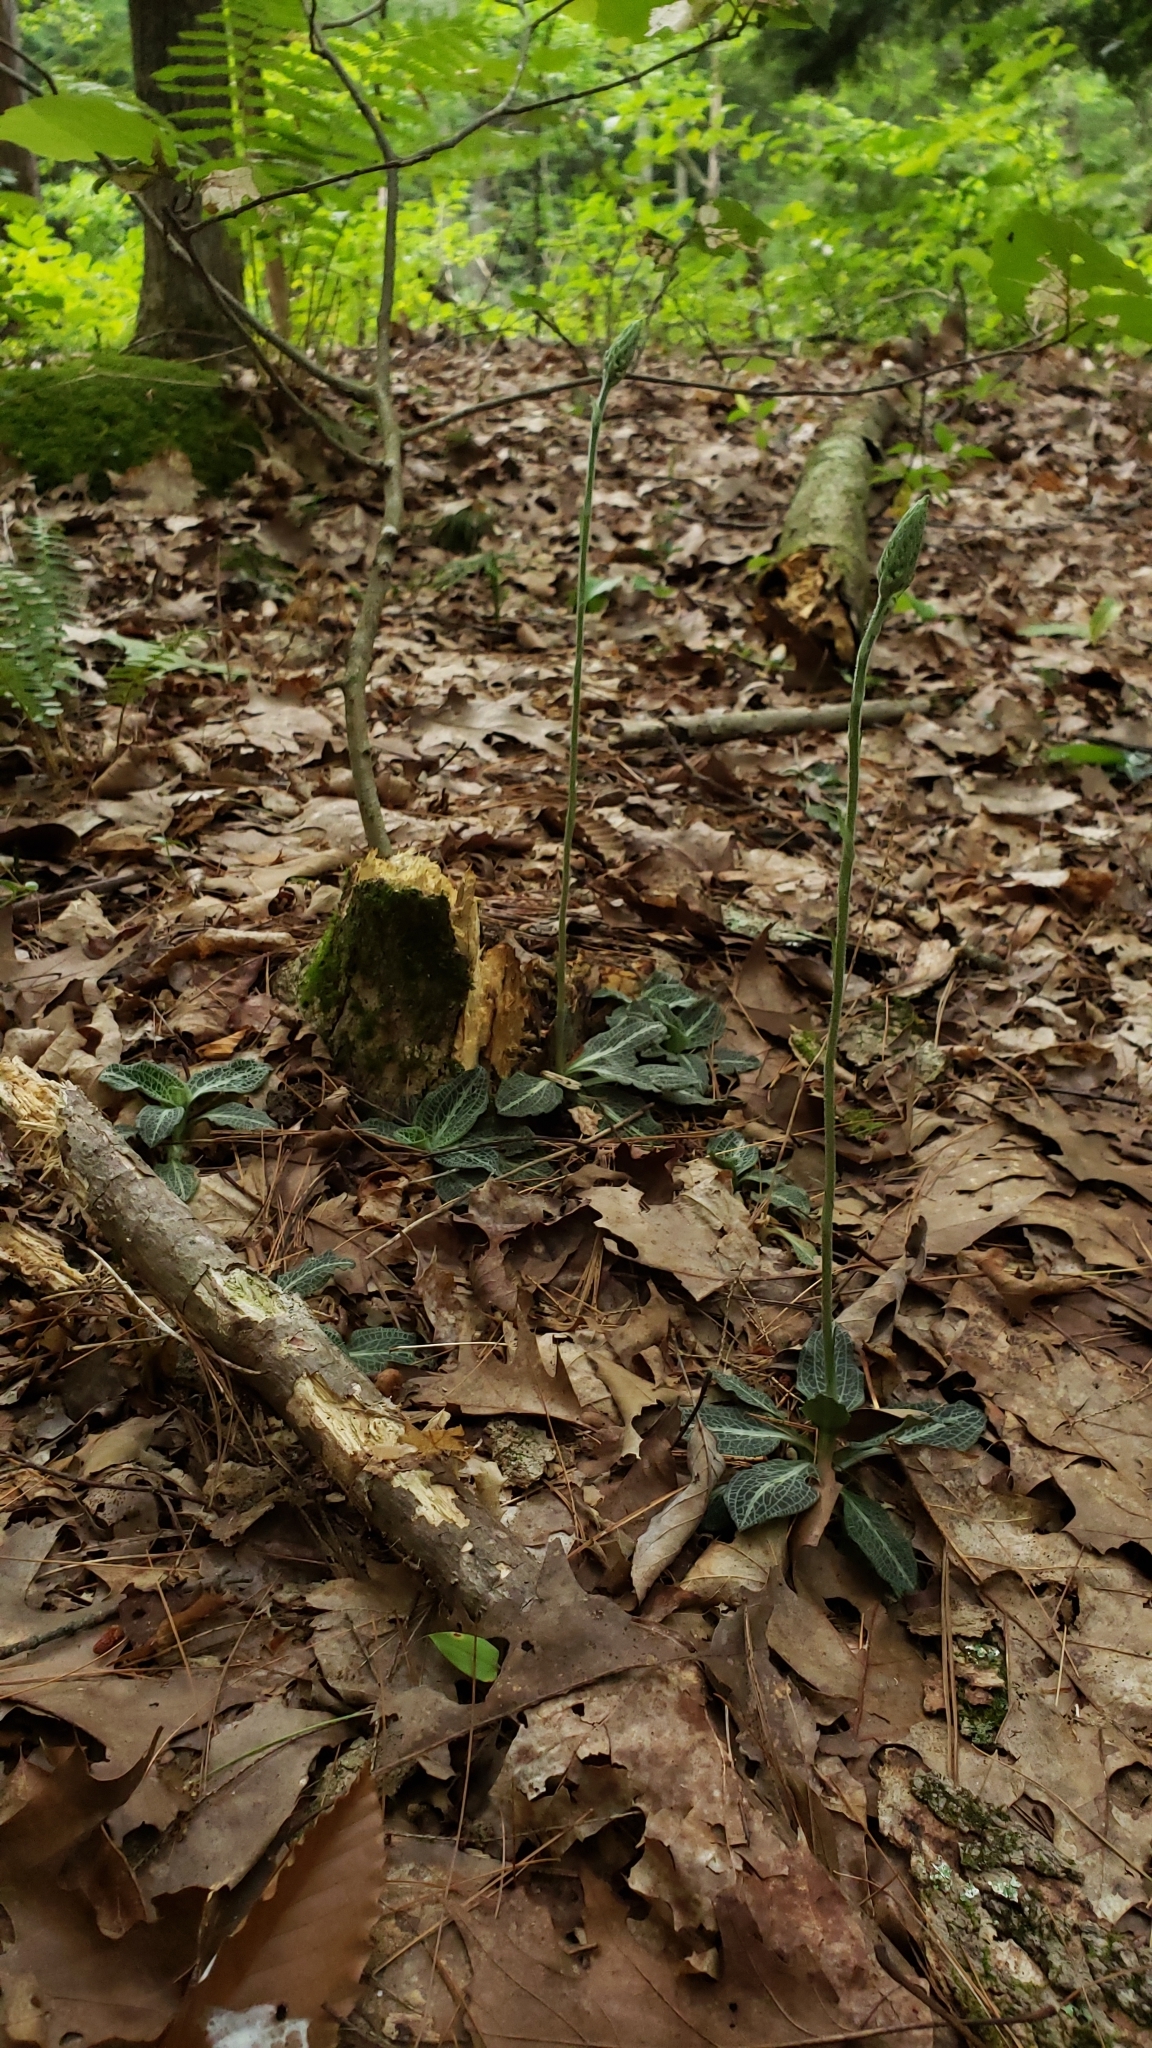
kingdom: Plantae
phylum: Tracheophyta
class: Liliopsida
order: Asparagales
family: Orchidaceae
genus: Goodyera
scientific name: Goodyera pubescens
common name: Downy rattlesnake-plantain
